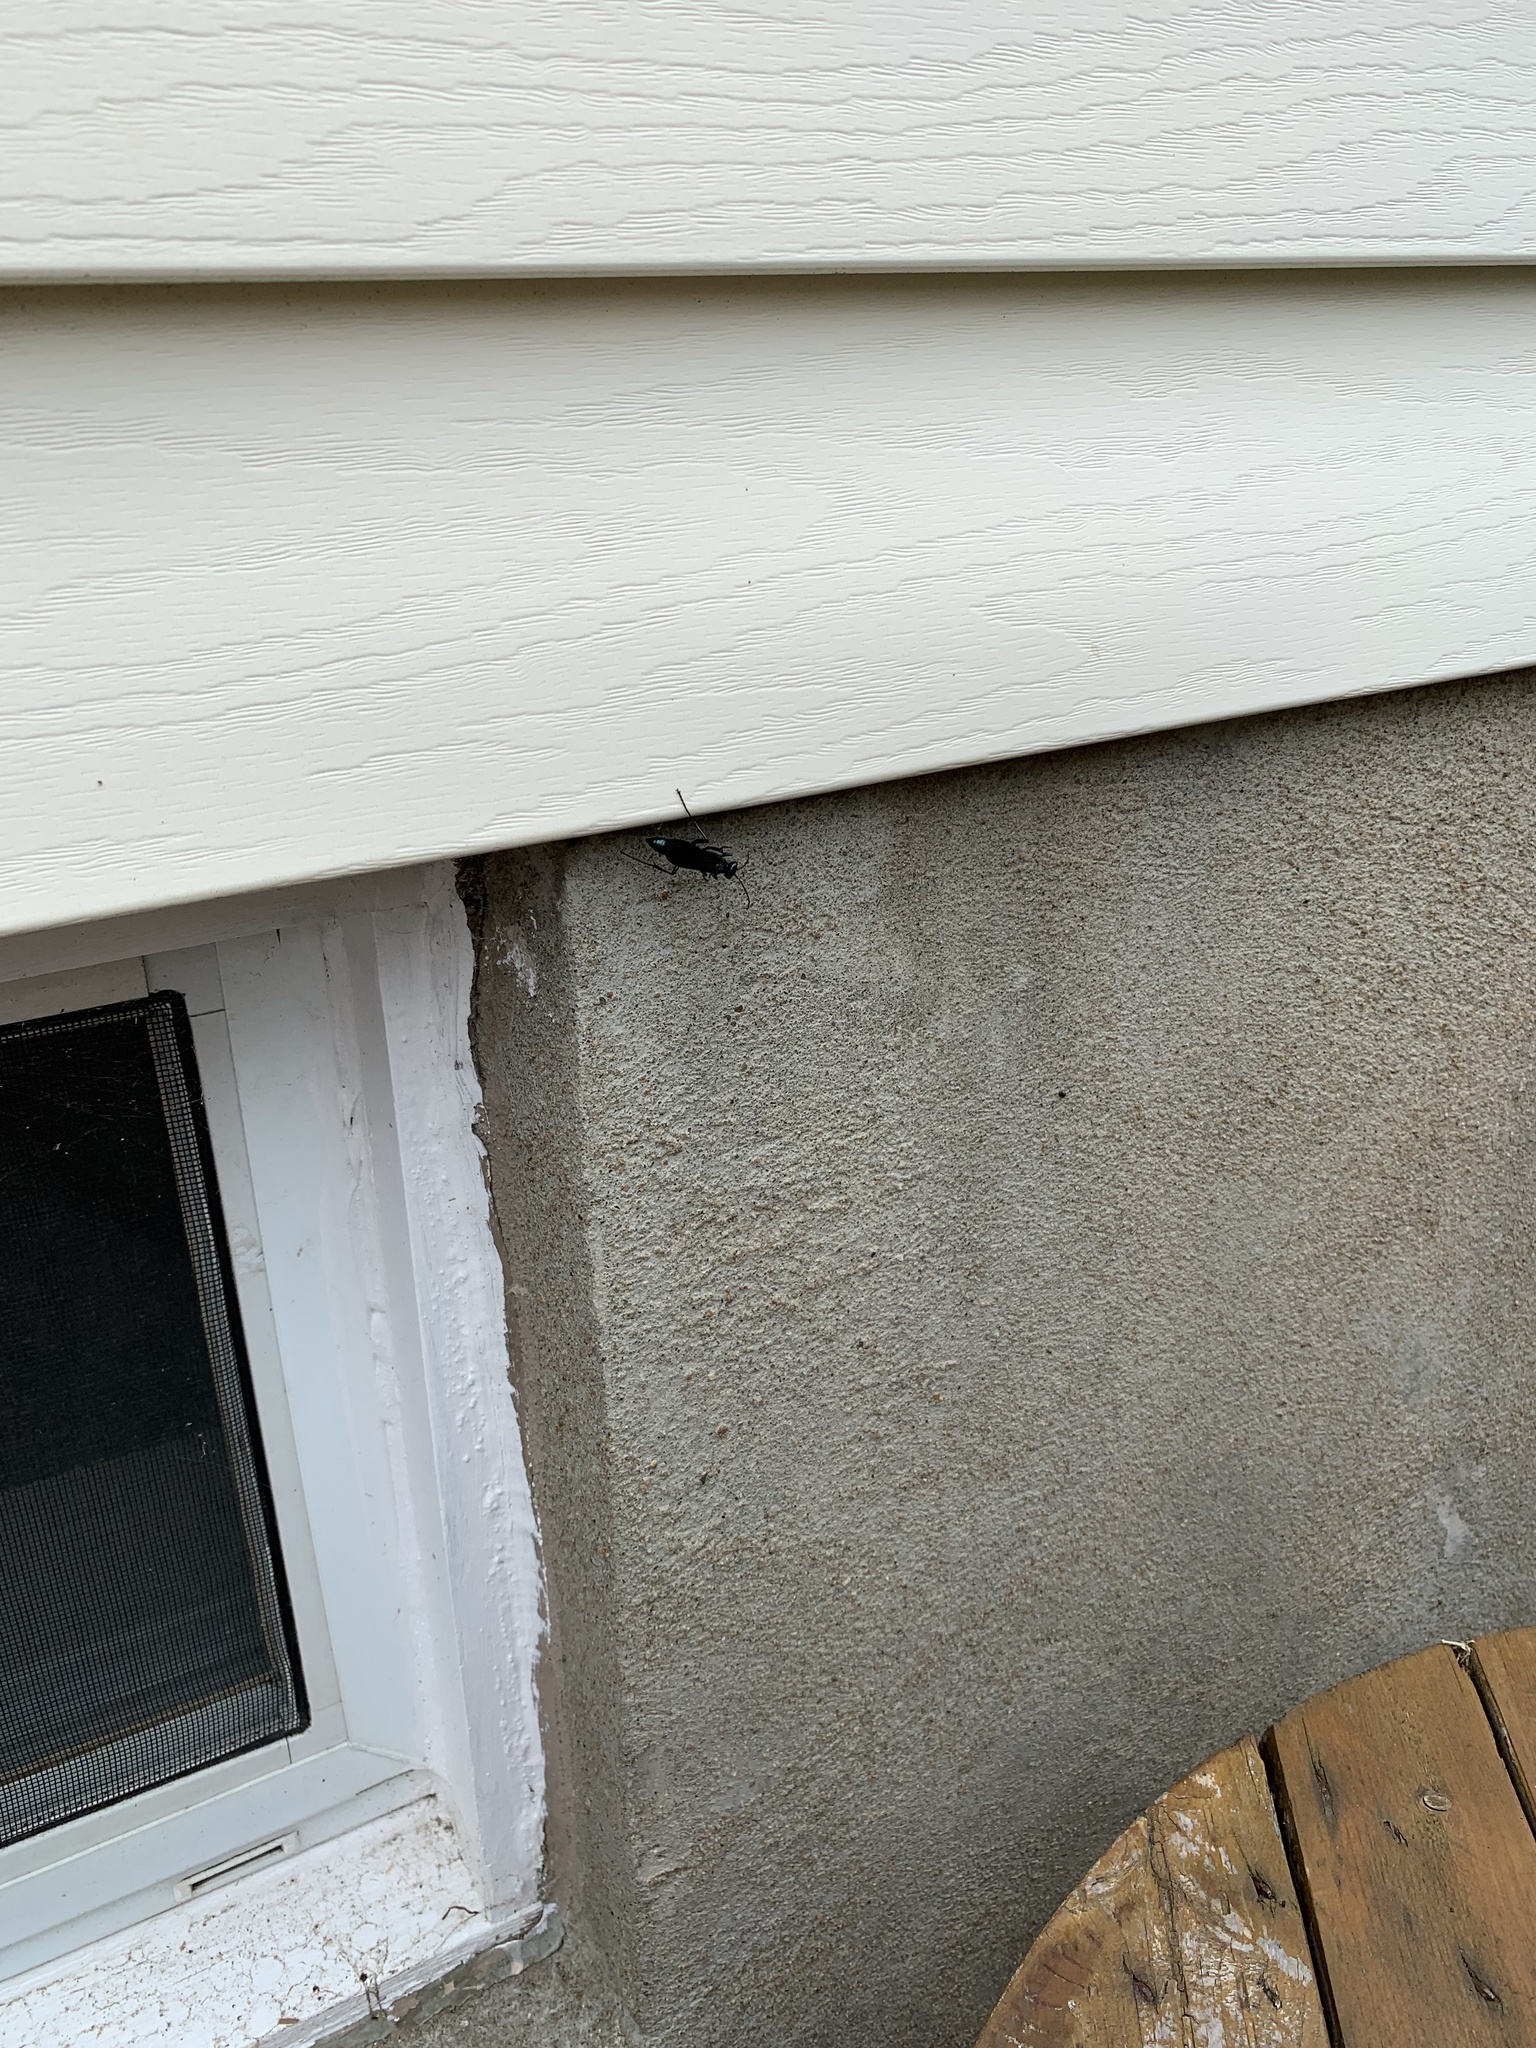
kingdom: Animalia
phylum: Arthropoda
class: Insecta
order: Hymenoptera
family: Sphecidae
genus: Chalybion
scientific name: Chalybion californicum
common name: Mud dauber
